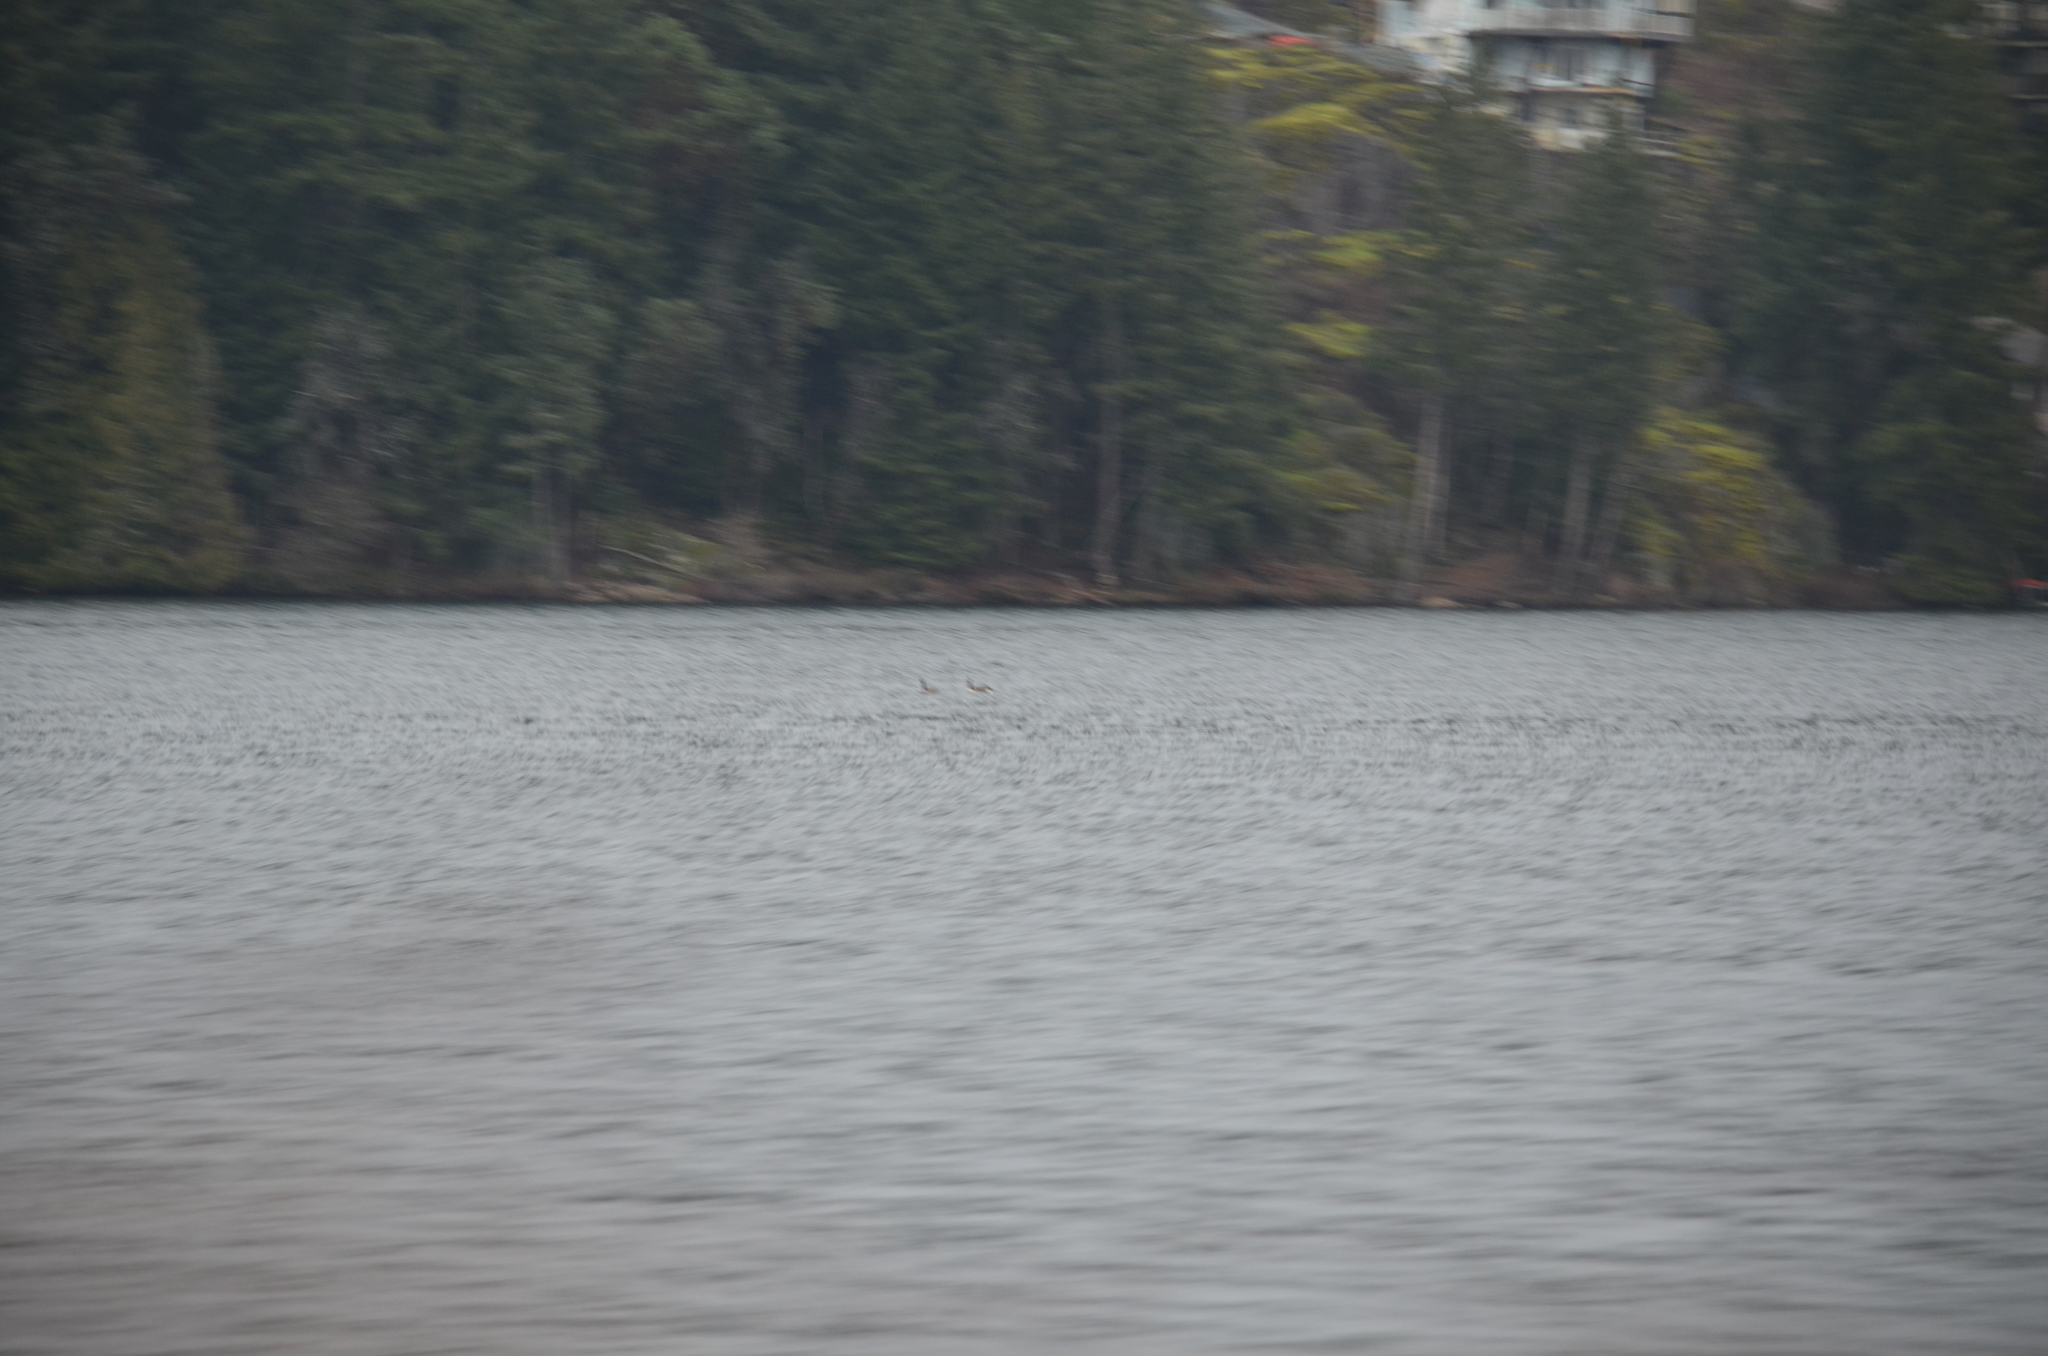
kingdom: Animalia
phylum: Chordata
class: Aves
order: Anseriformes
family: Anatidae
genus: Branta
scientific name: Branta canadensis
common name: Canada goose
